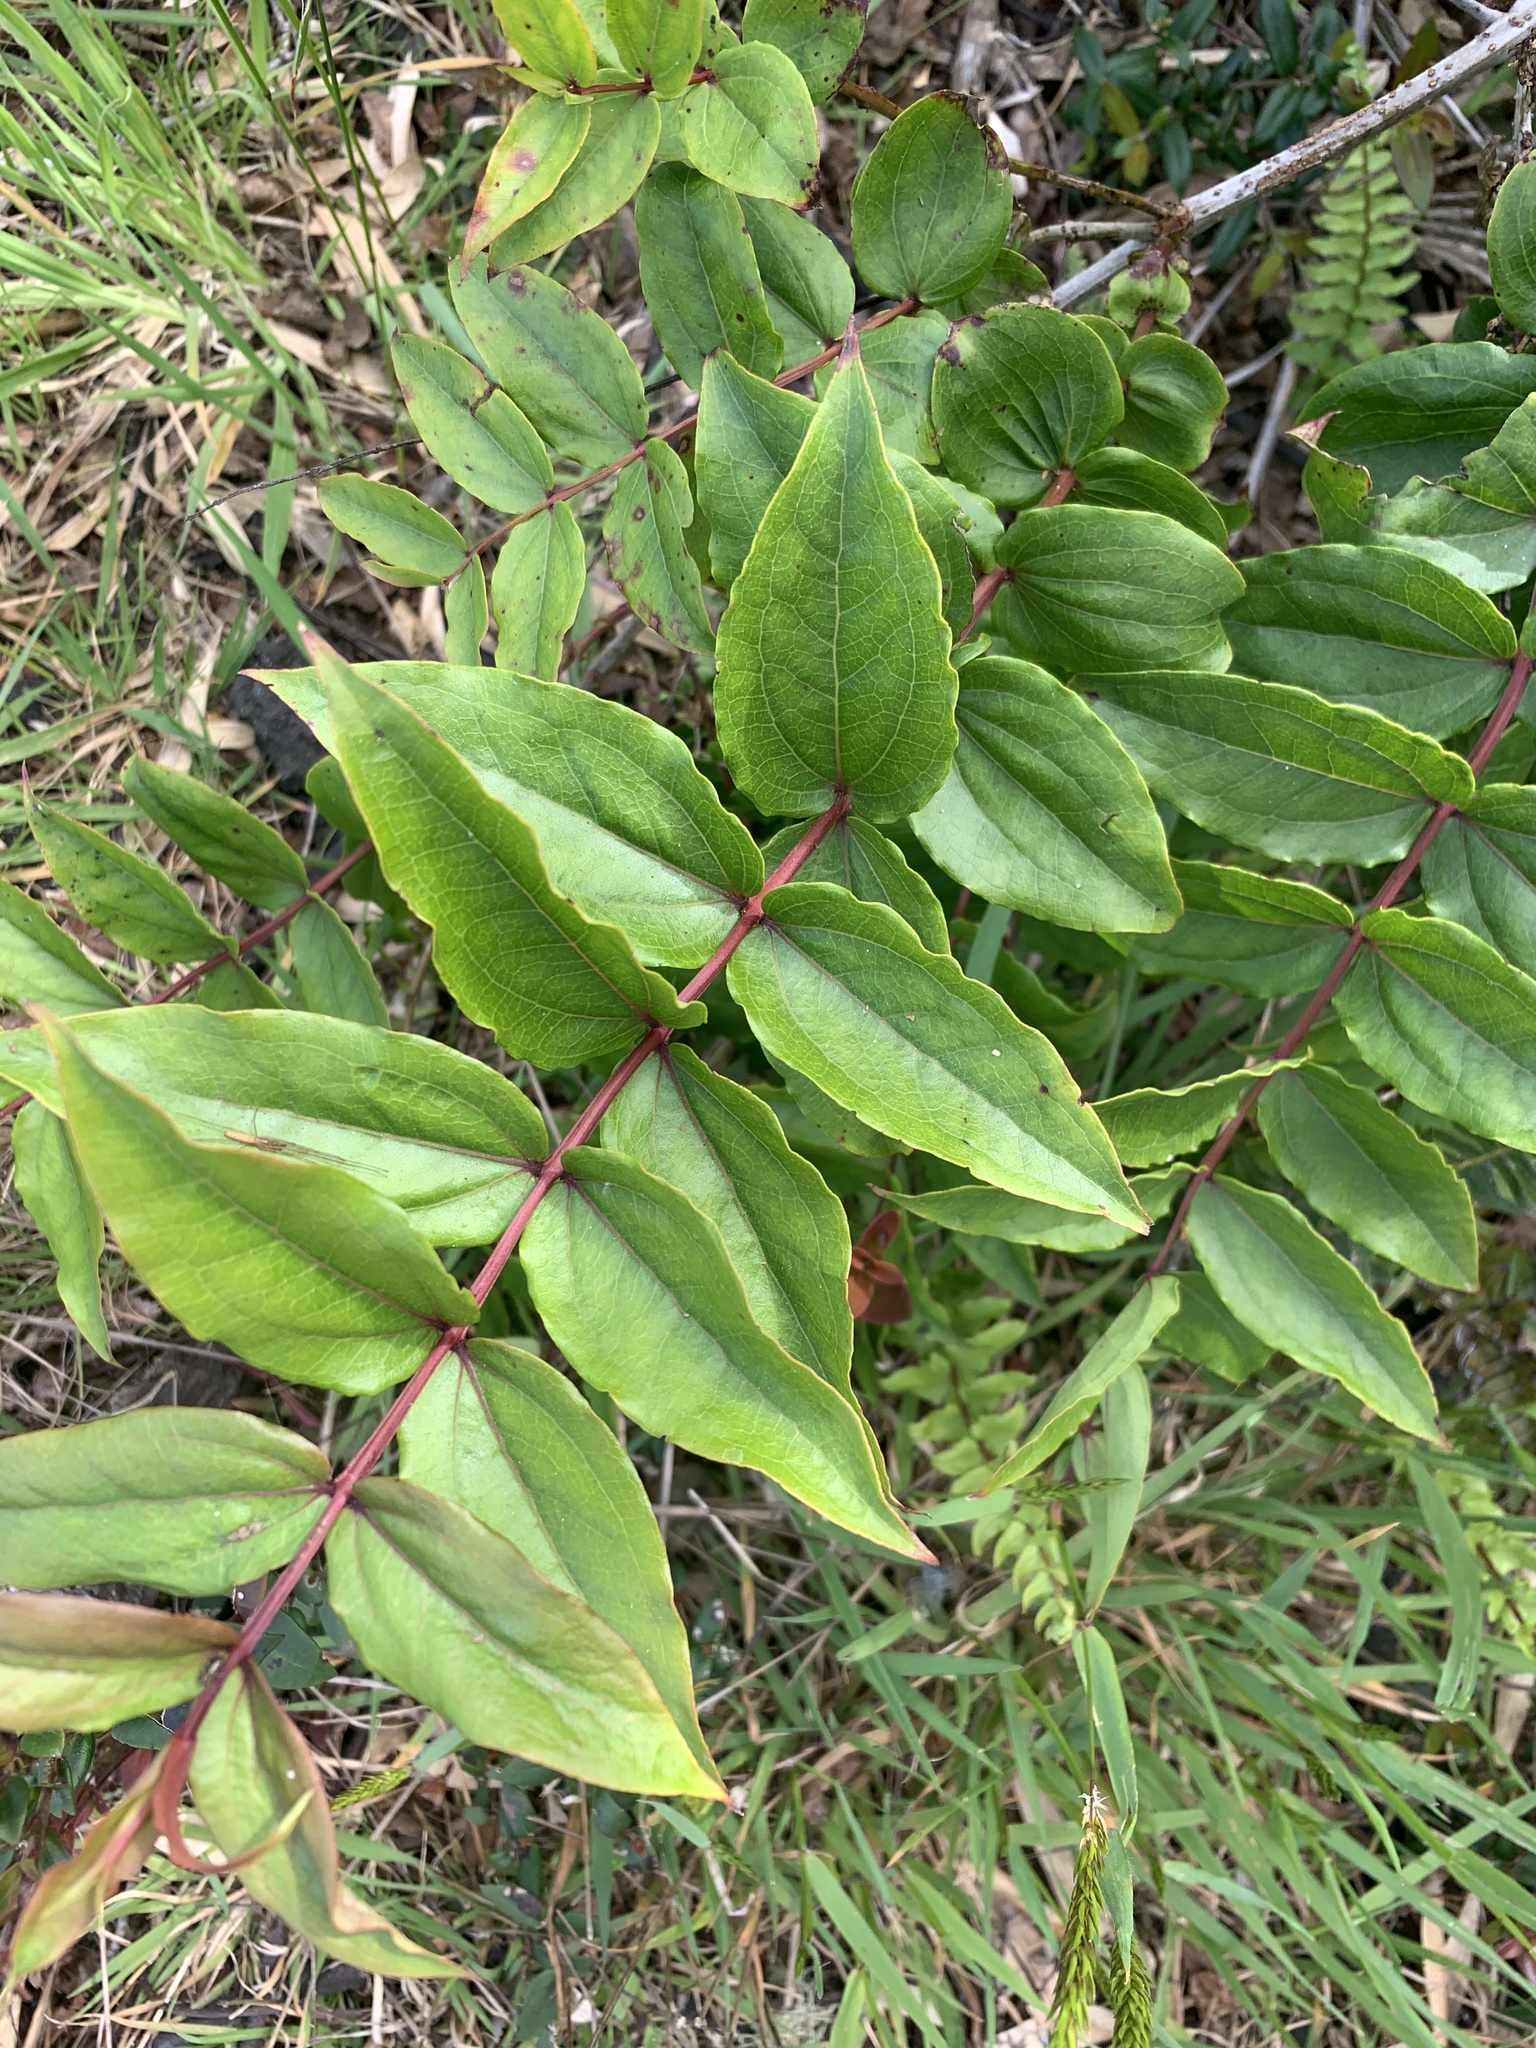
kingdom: Plantae
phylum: Tracheophyta
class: Magnoliopsida
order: Cucurbitales
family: Coriariaceae
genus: Coriaria
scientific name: Coriaria ruscifolia
